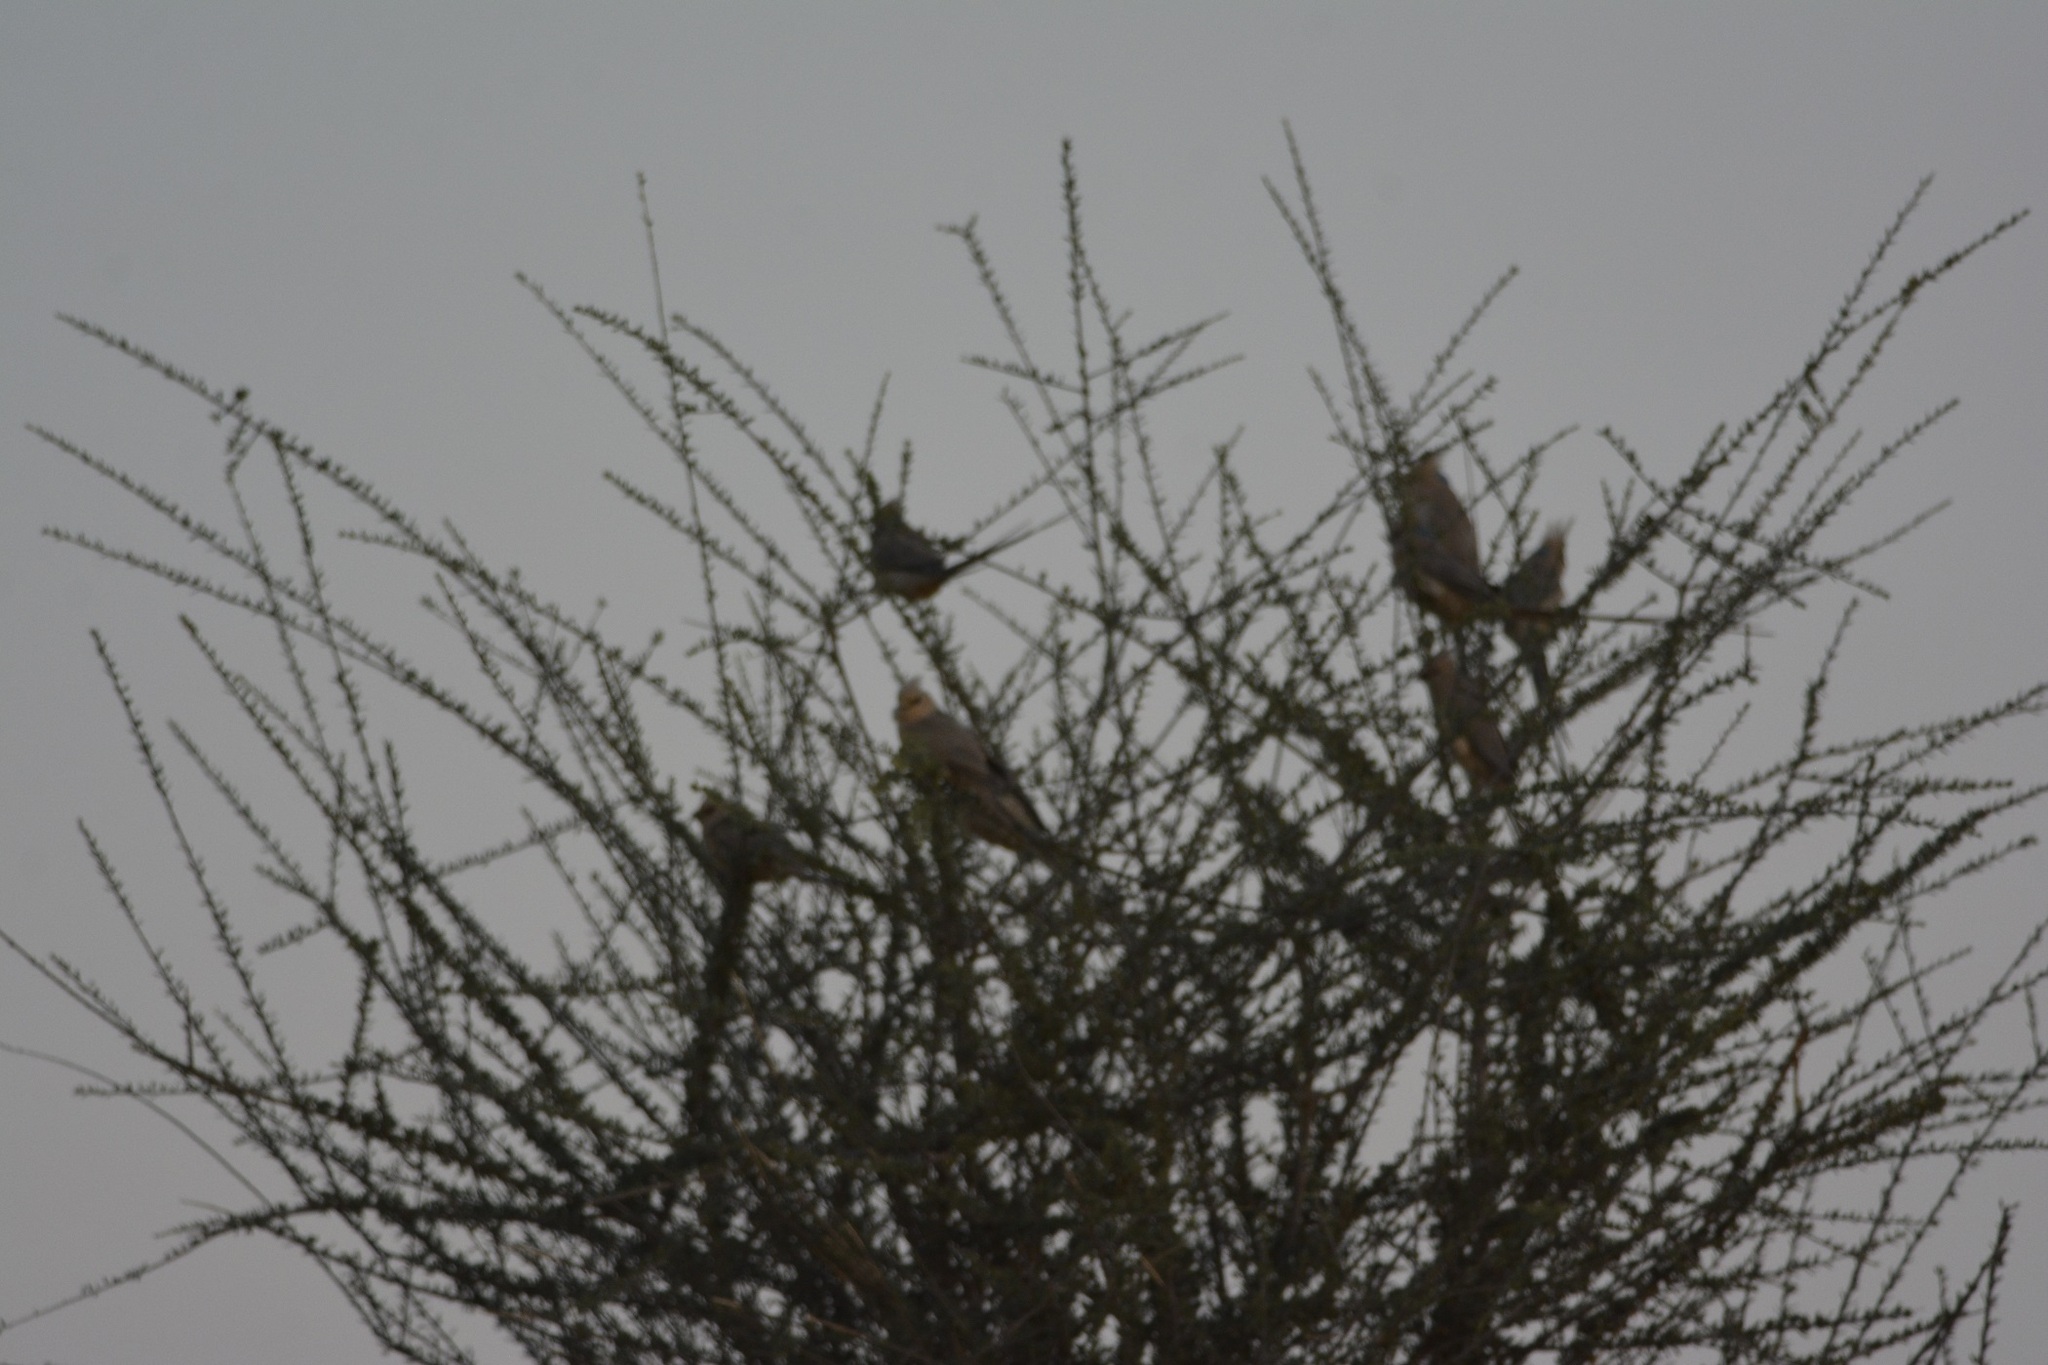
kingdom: Animalia
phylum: Chordata
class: Aves
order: Coliiformes
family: Coliidae
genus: Urocolius
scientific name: Urocolius macrourus
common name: Blue-naped mousebird
